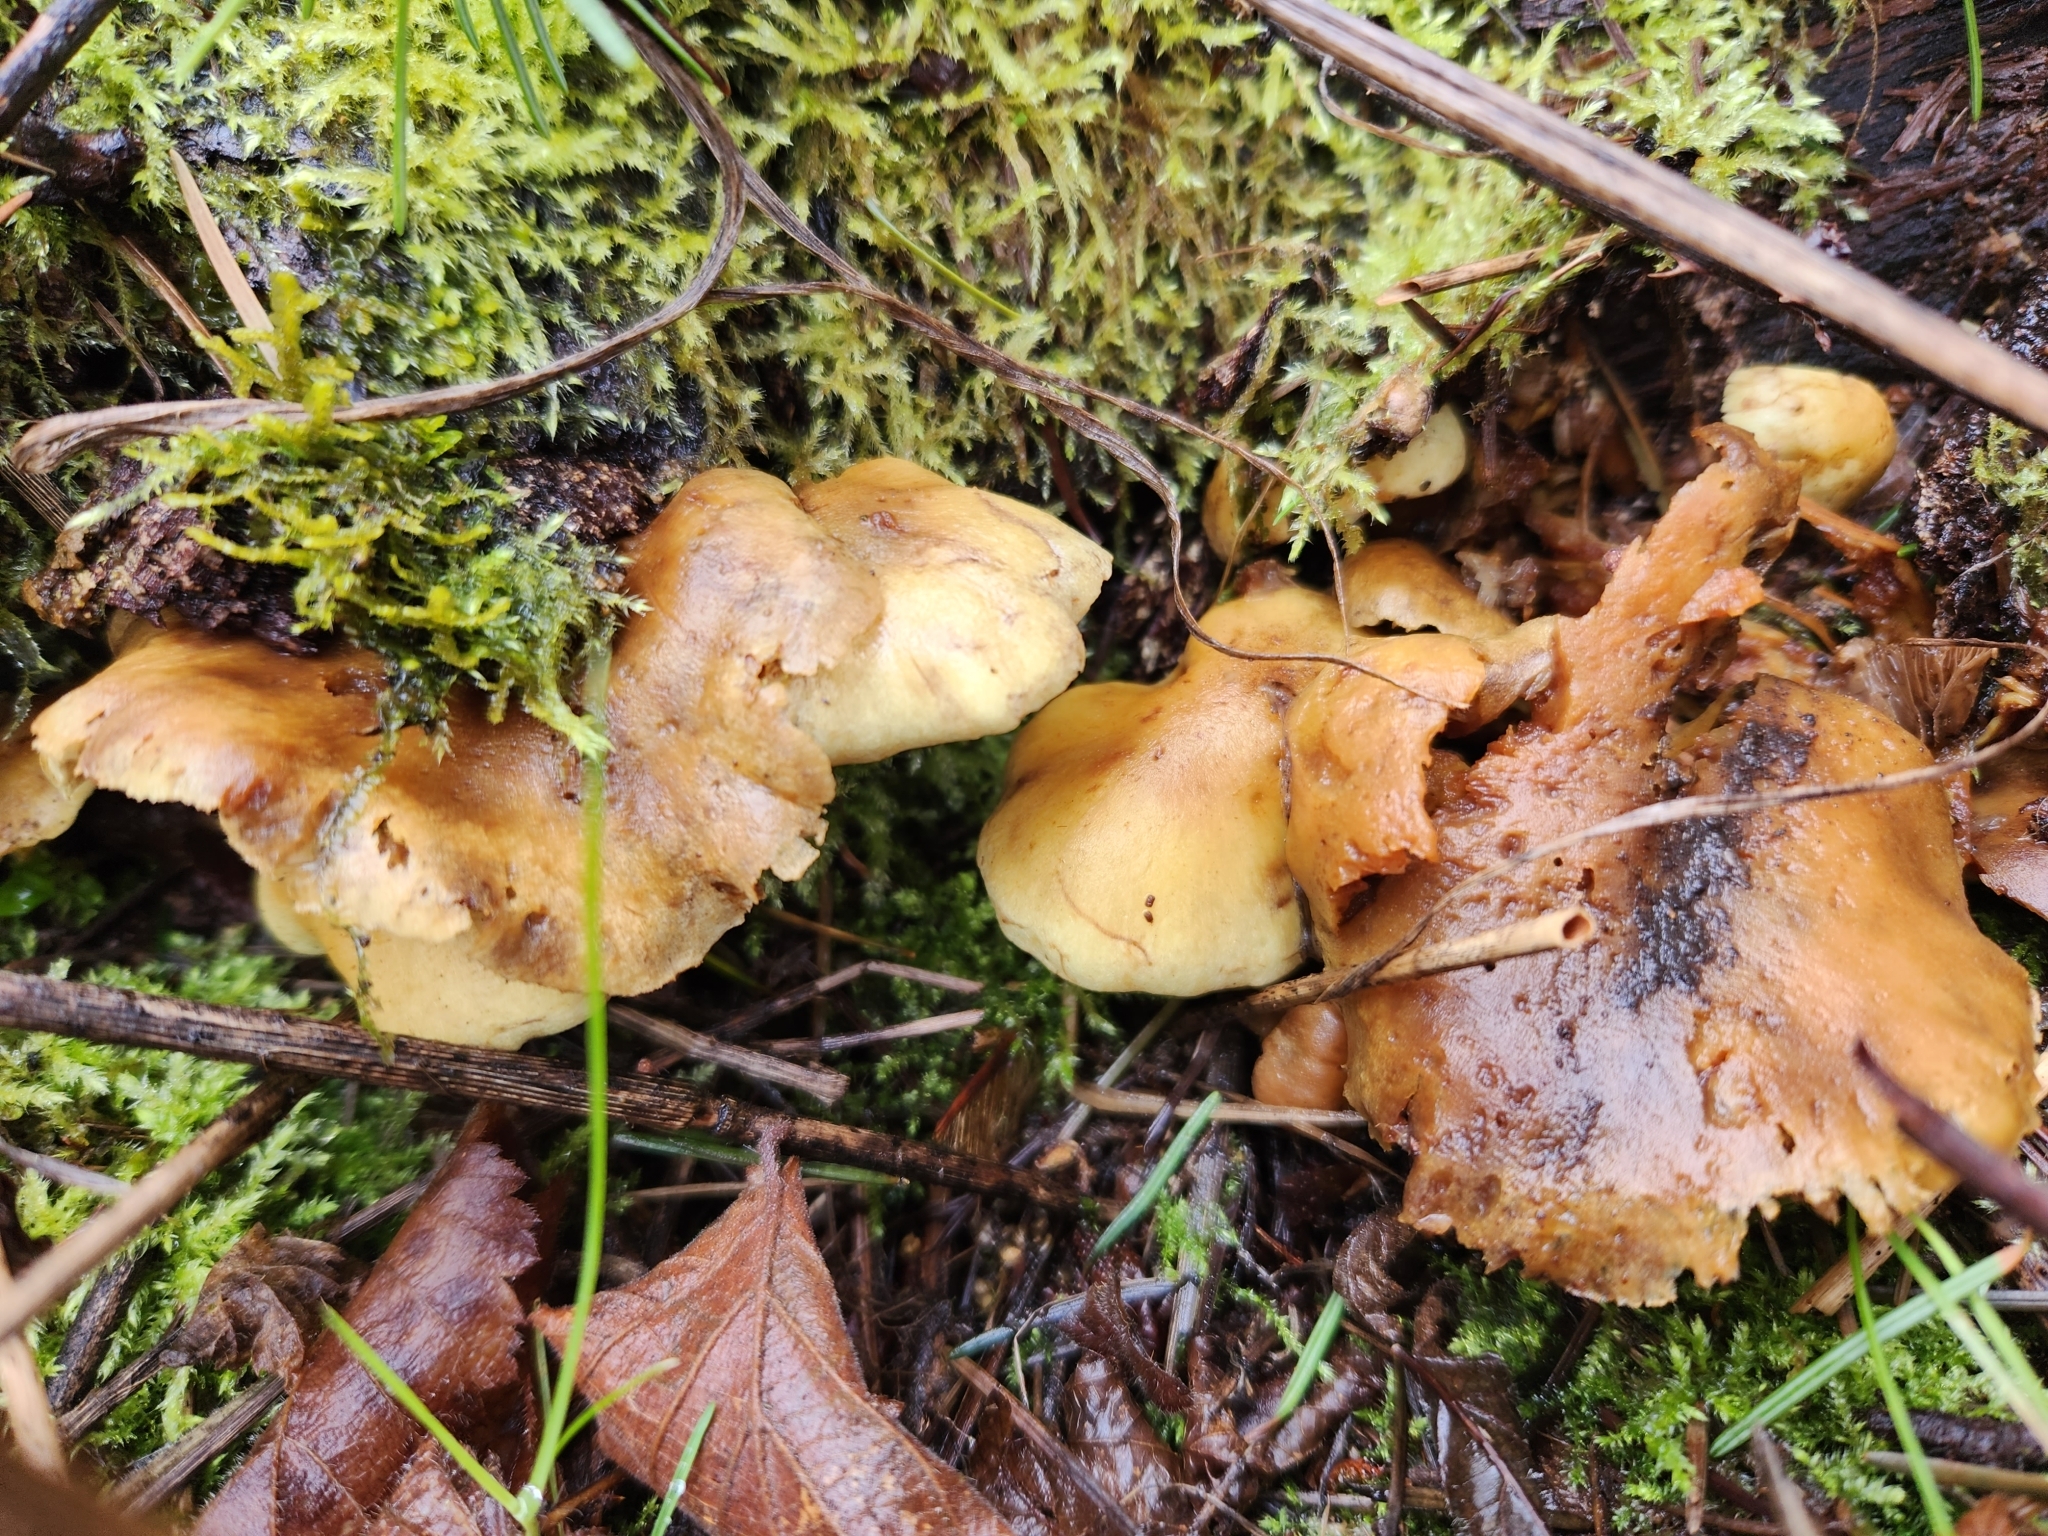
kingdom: Fungi
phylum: Basidiomycota
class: Agaricomycetes
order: Agaricales
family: Strophariaceae
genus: Hypholoma
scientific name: Hypholoma fasciculare
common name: Sulphur tuft
